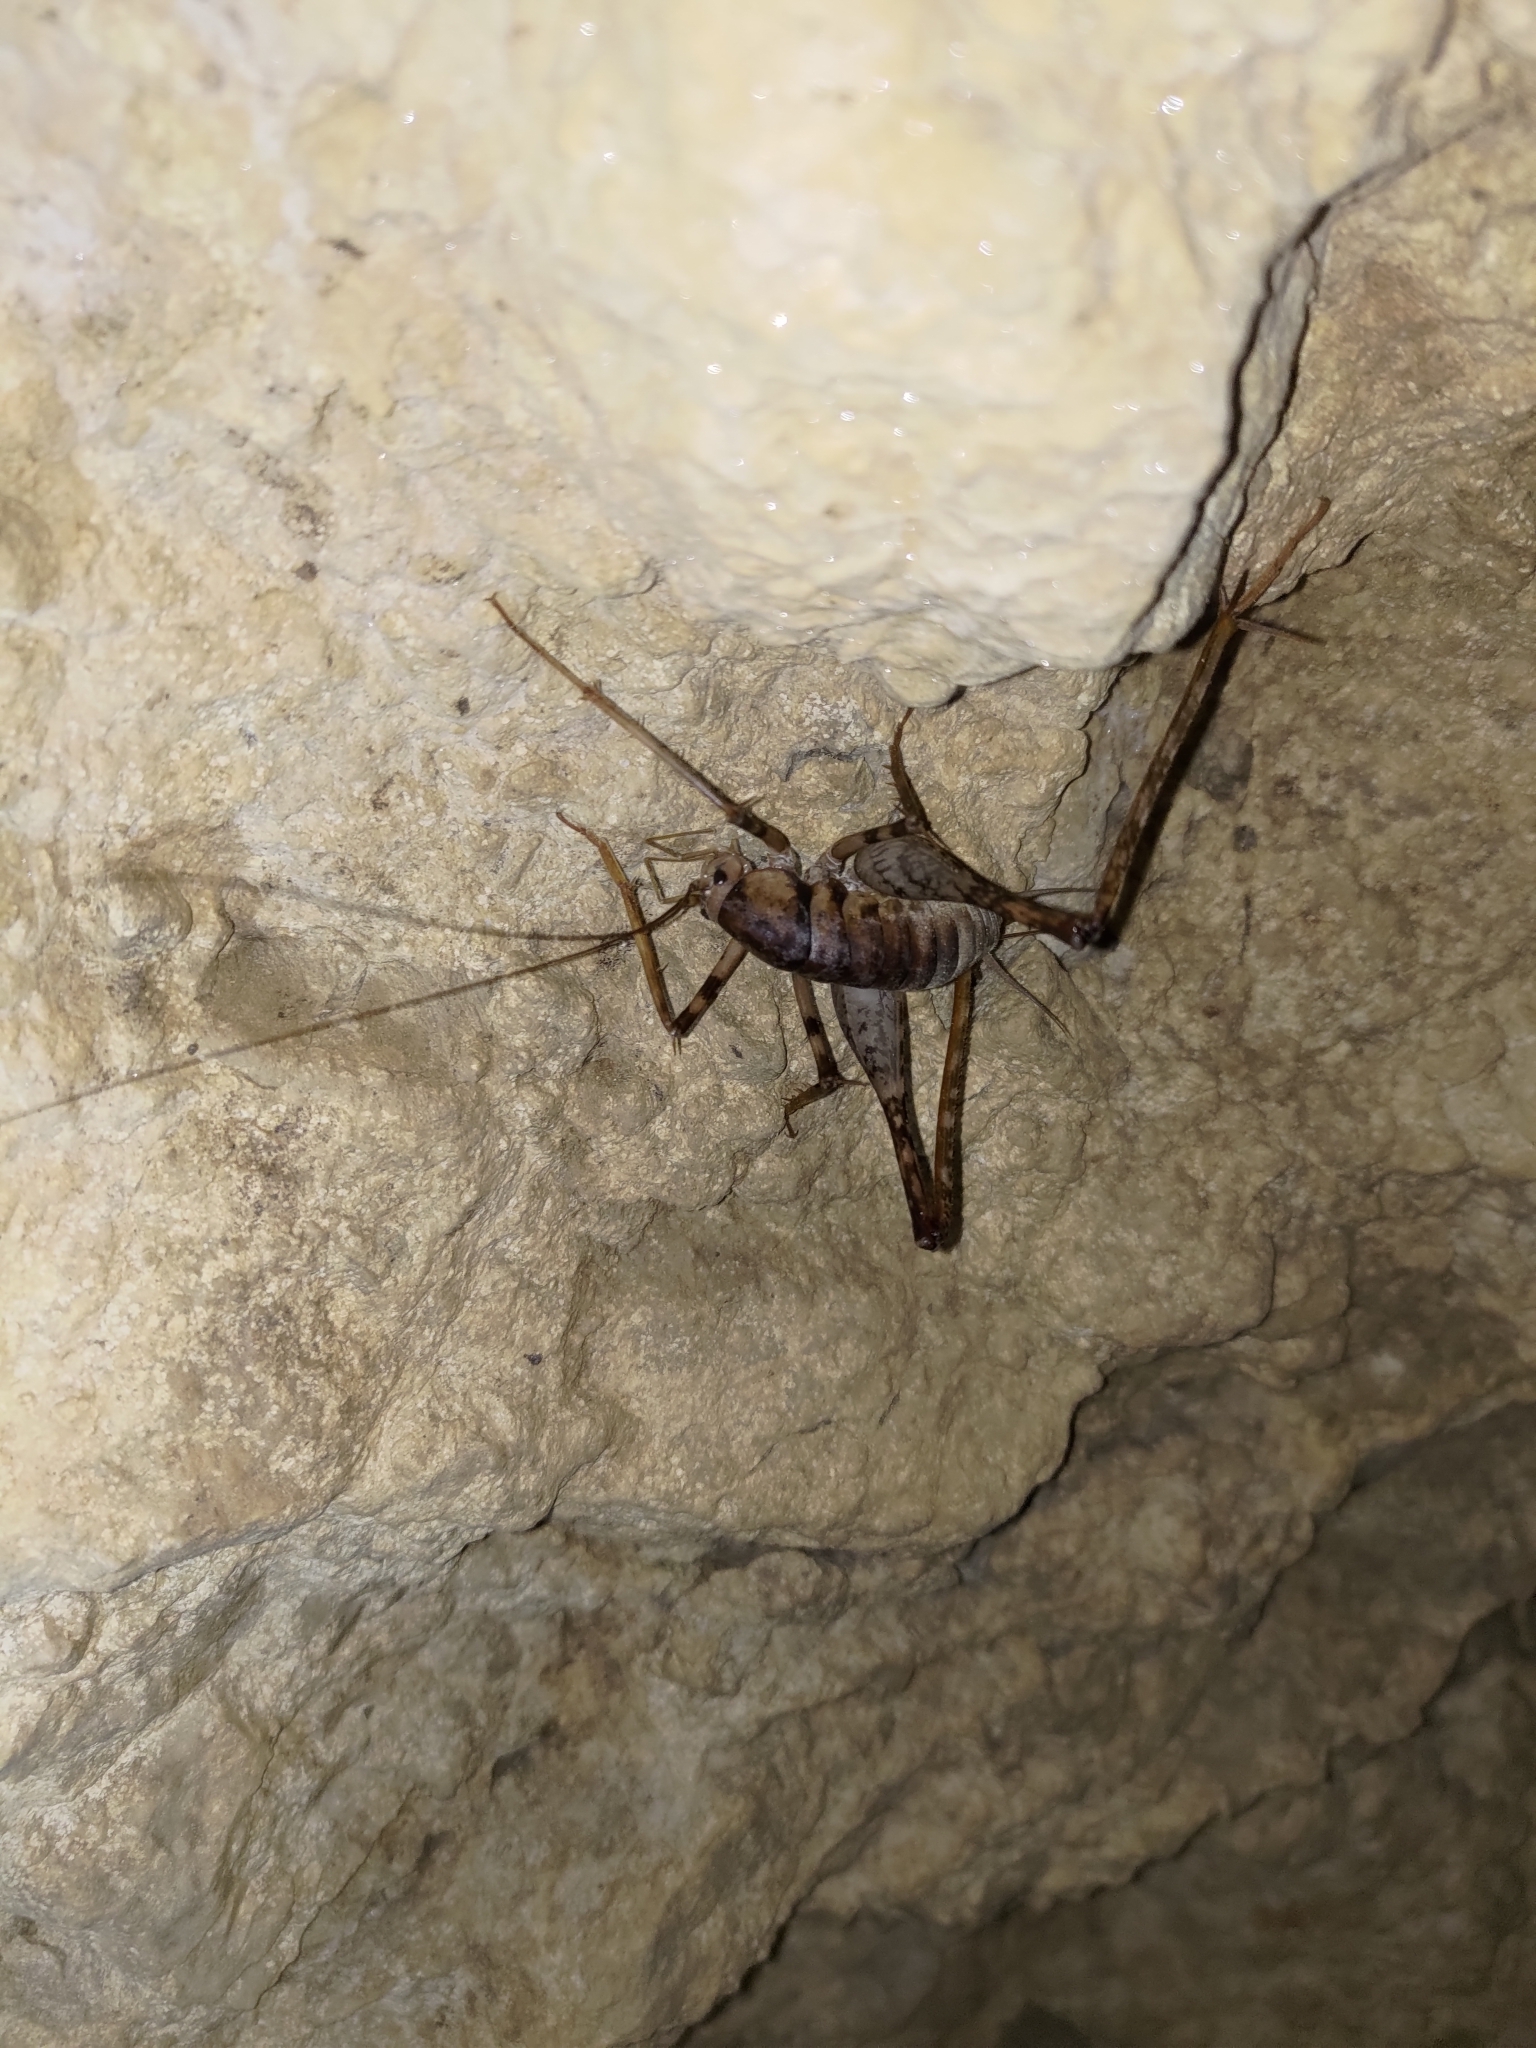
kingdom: Animalia
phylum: Arthropoda
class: Insecta
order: Orthoptera
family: Rhaphidophoridae
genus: Tachycines
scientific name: Tachycines asynamorus
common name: Greenhouse camel cricket
